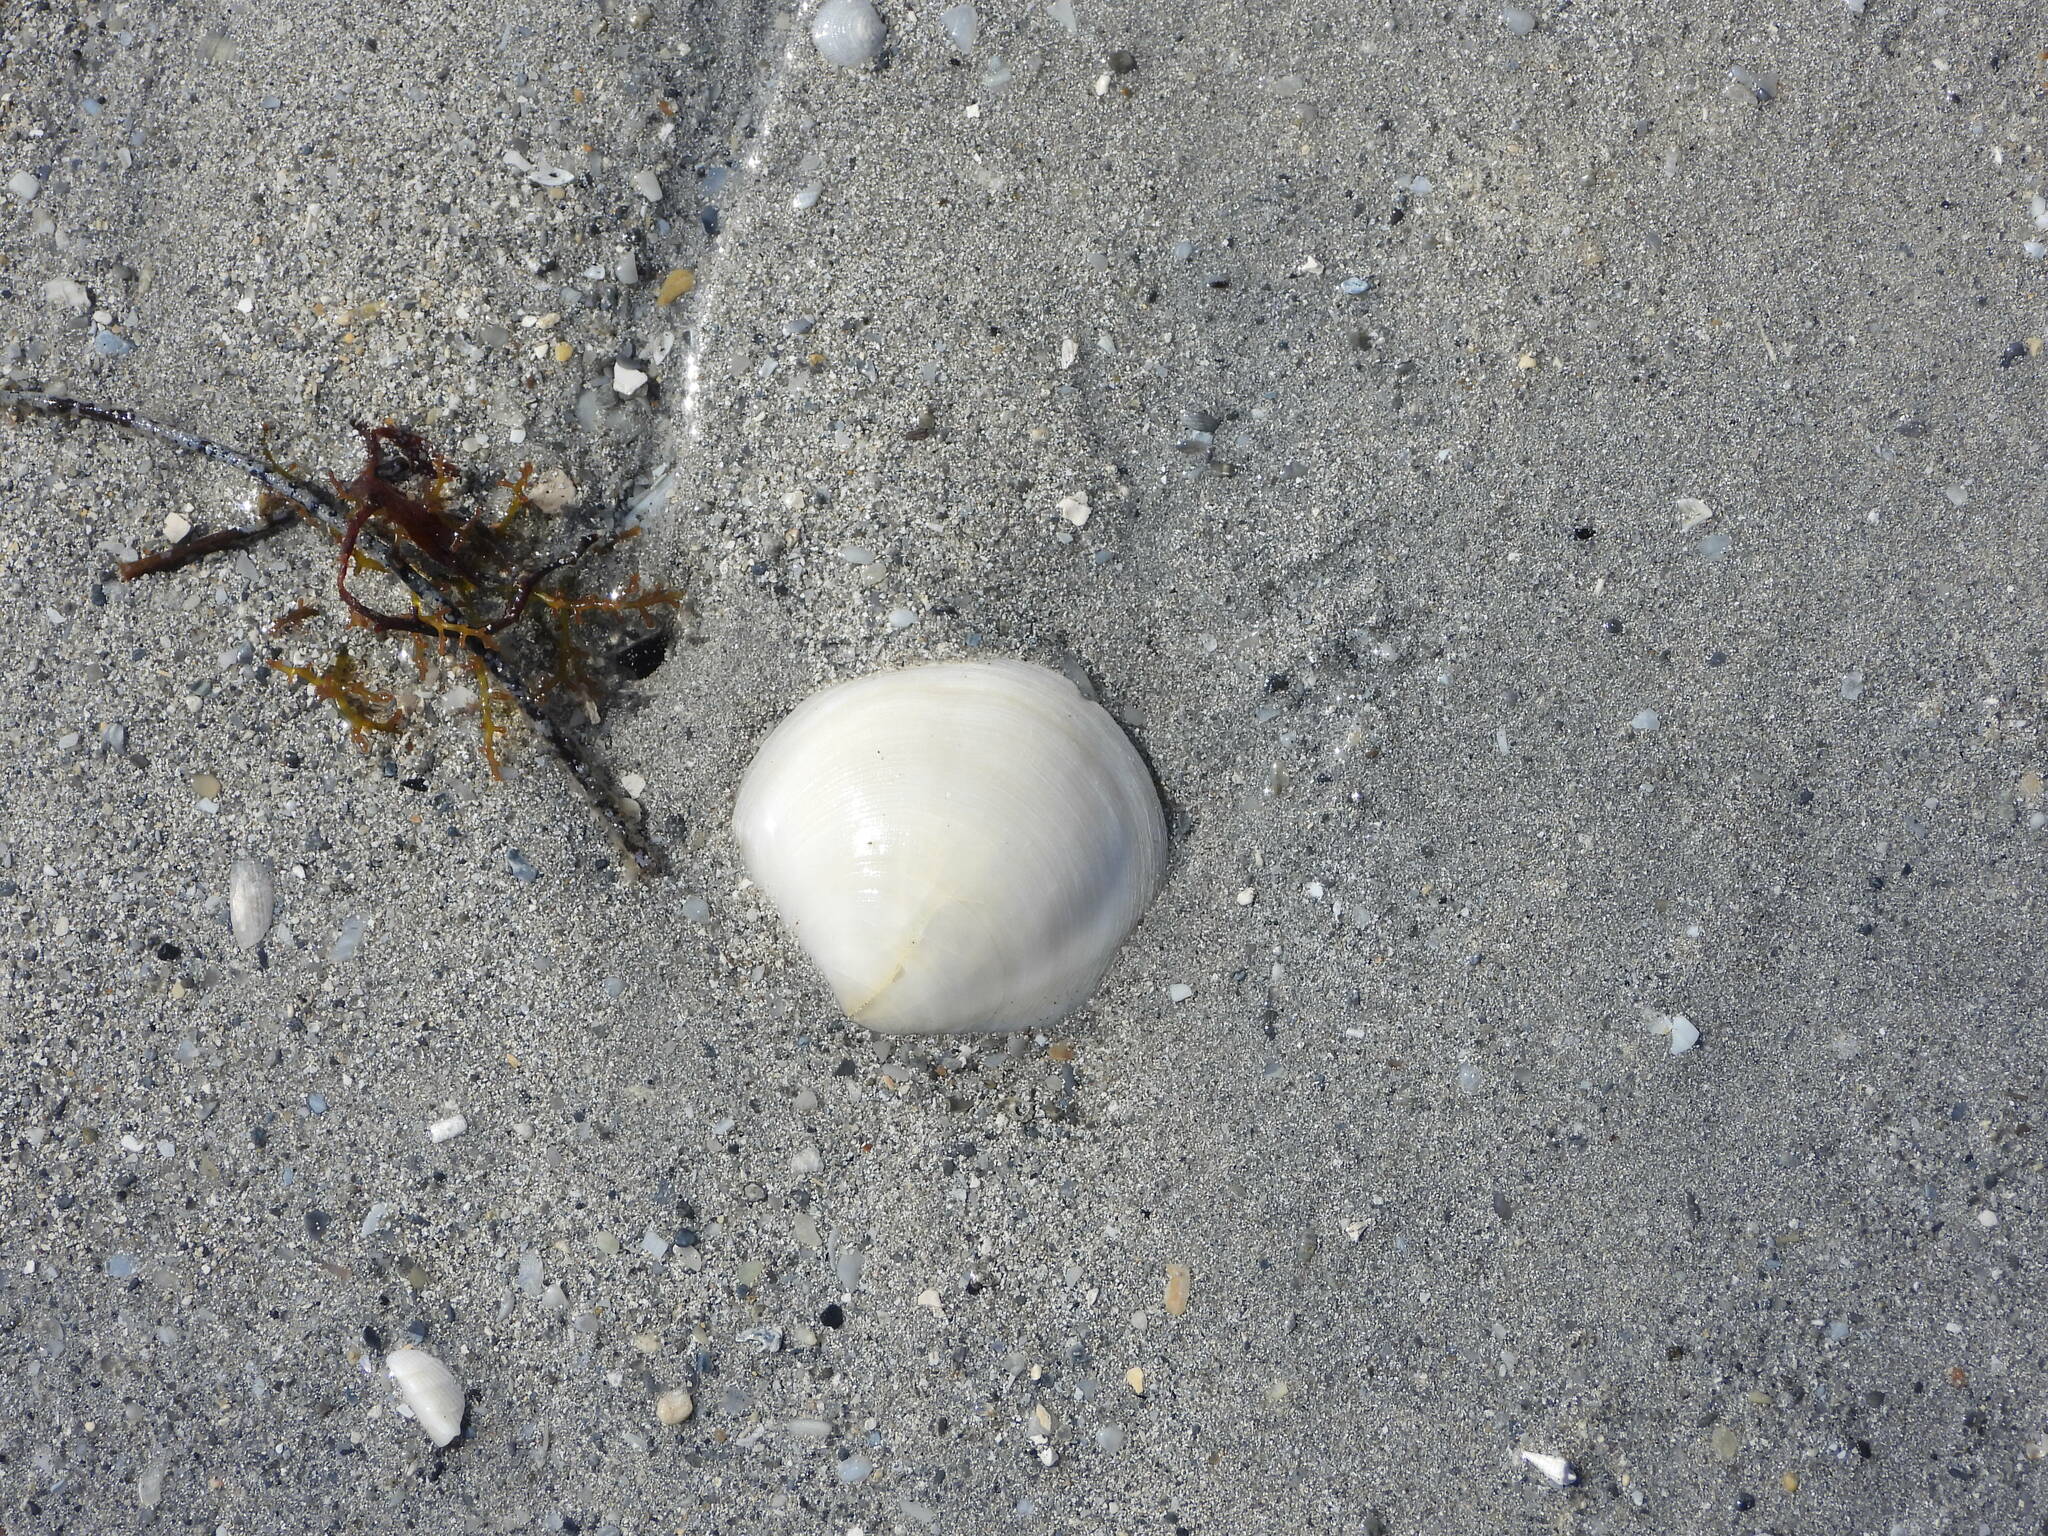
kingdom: Animalia
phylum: Mollusca
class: Bivalvia
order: Lucinida
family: Lucinidae
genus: Anodontia
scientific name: Anodontia alba
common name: Buttercup lucine
